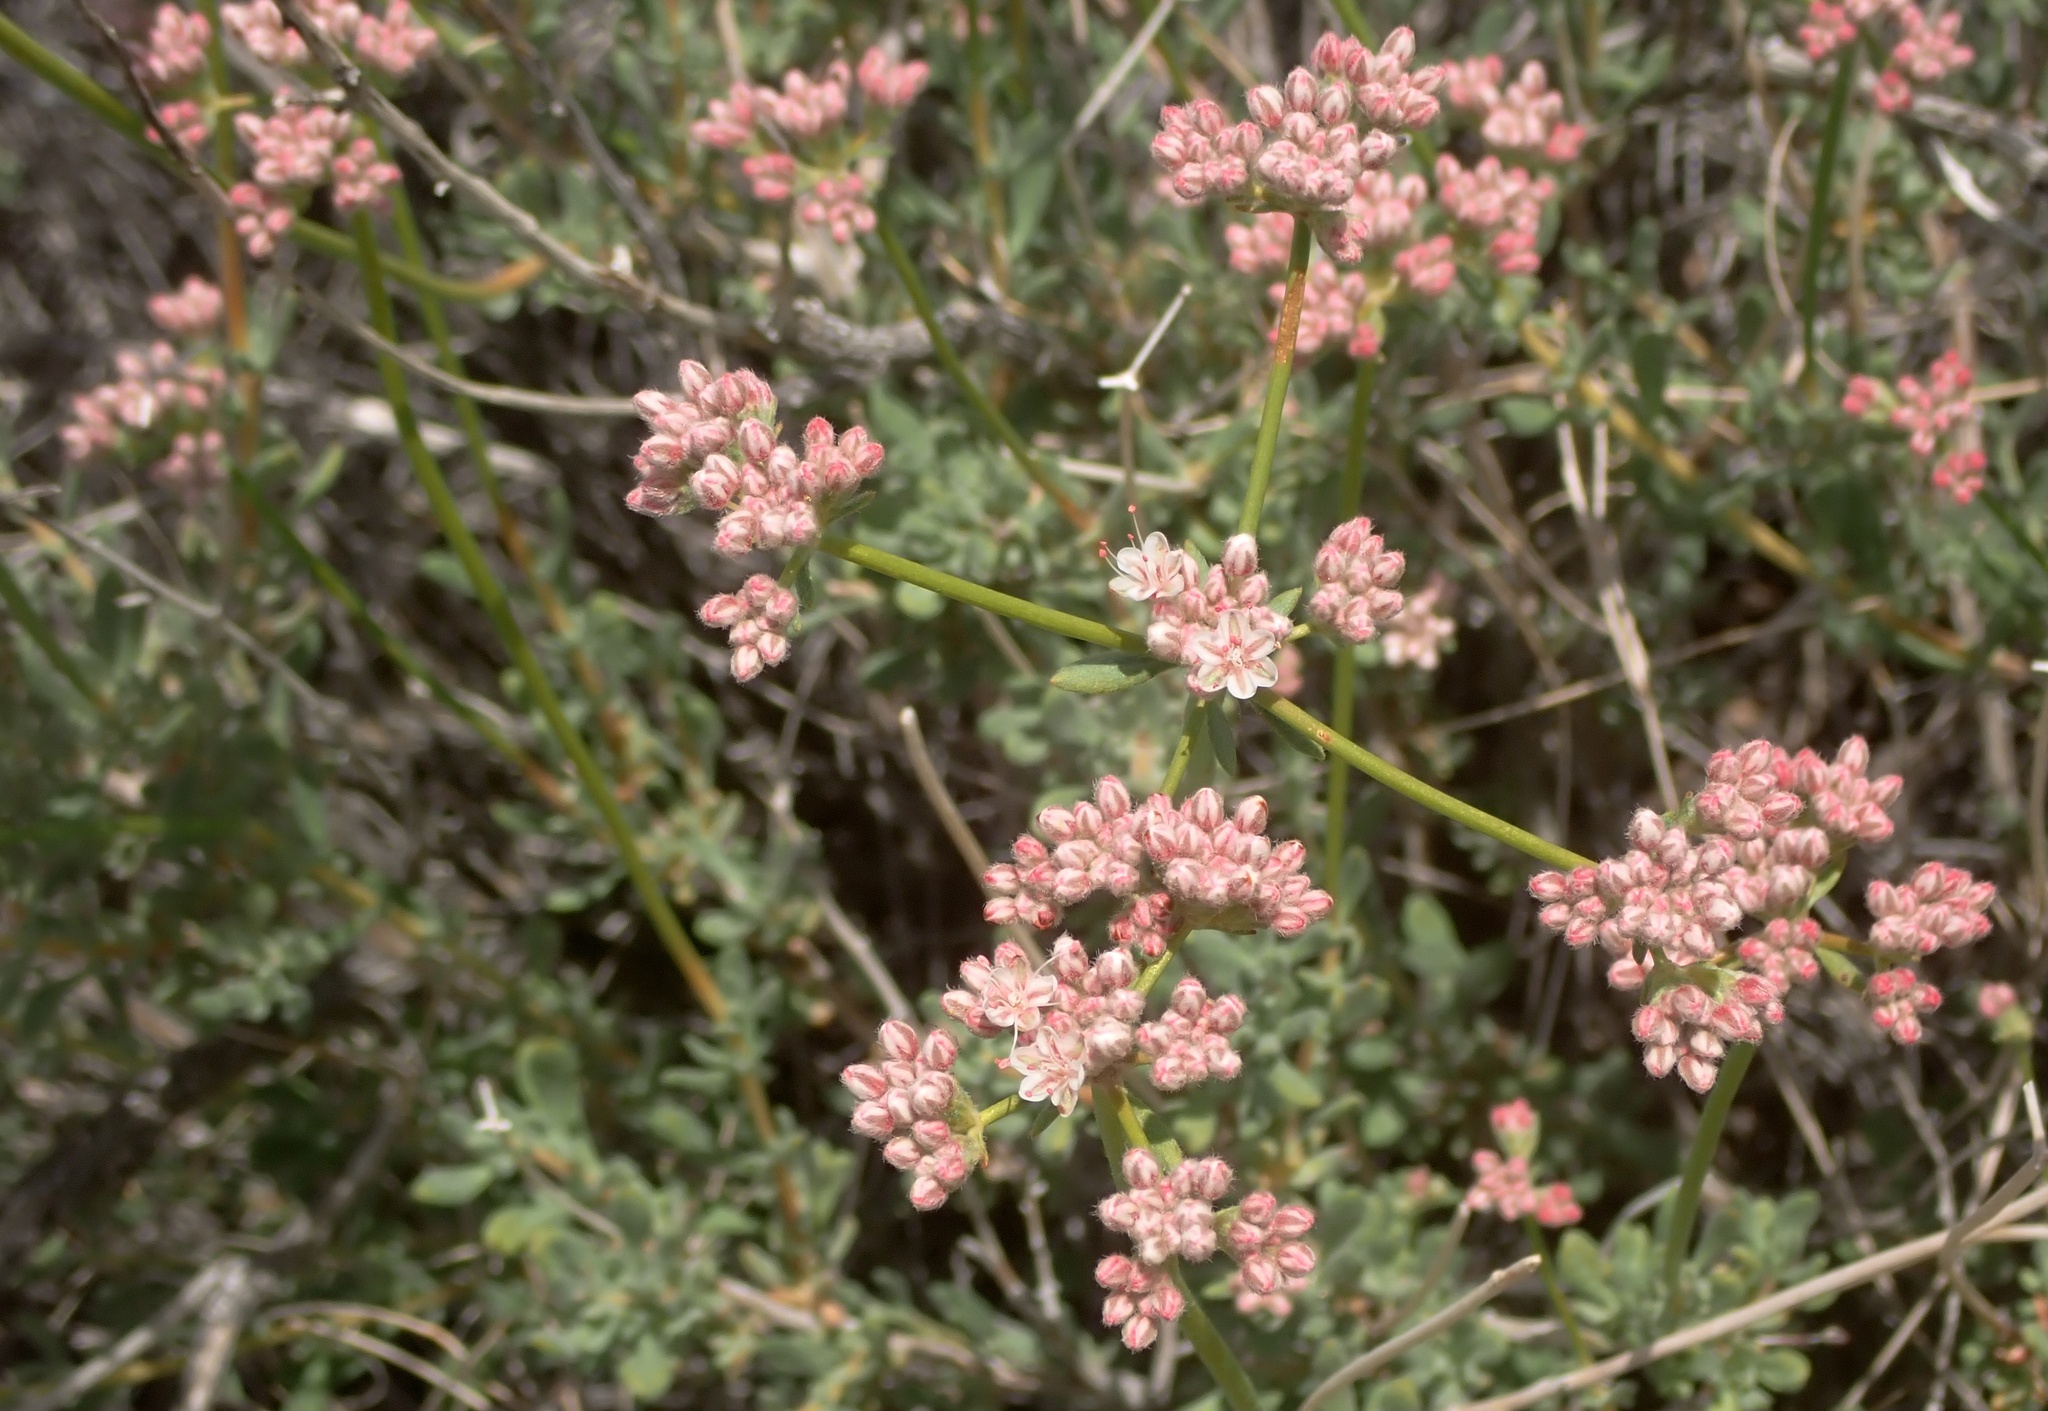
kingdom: Plantae
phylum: Tracheophyta
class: Magnoliopsida
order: Caryophyllales
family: Polygonaceae
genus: Eriogonum
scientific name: Eriogonum fasciculatum
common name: California wild buckwheat
